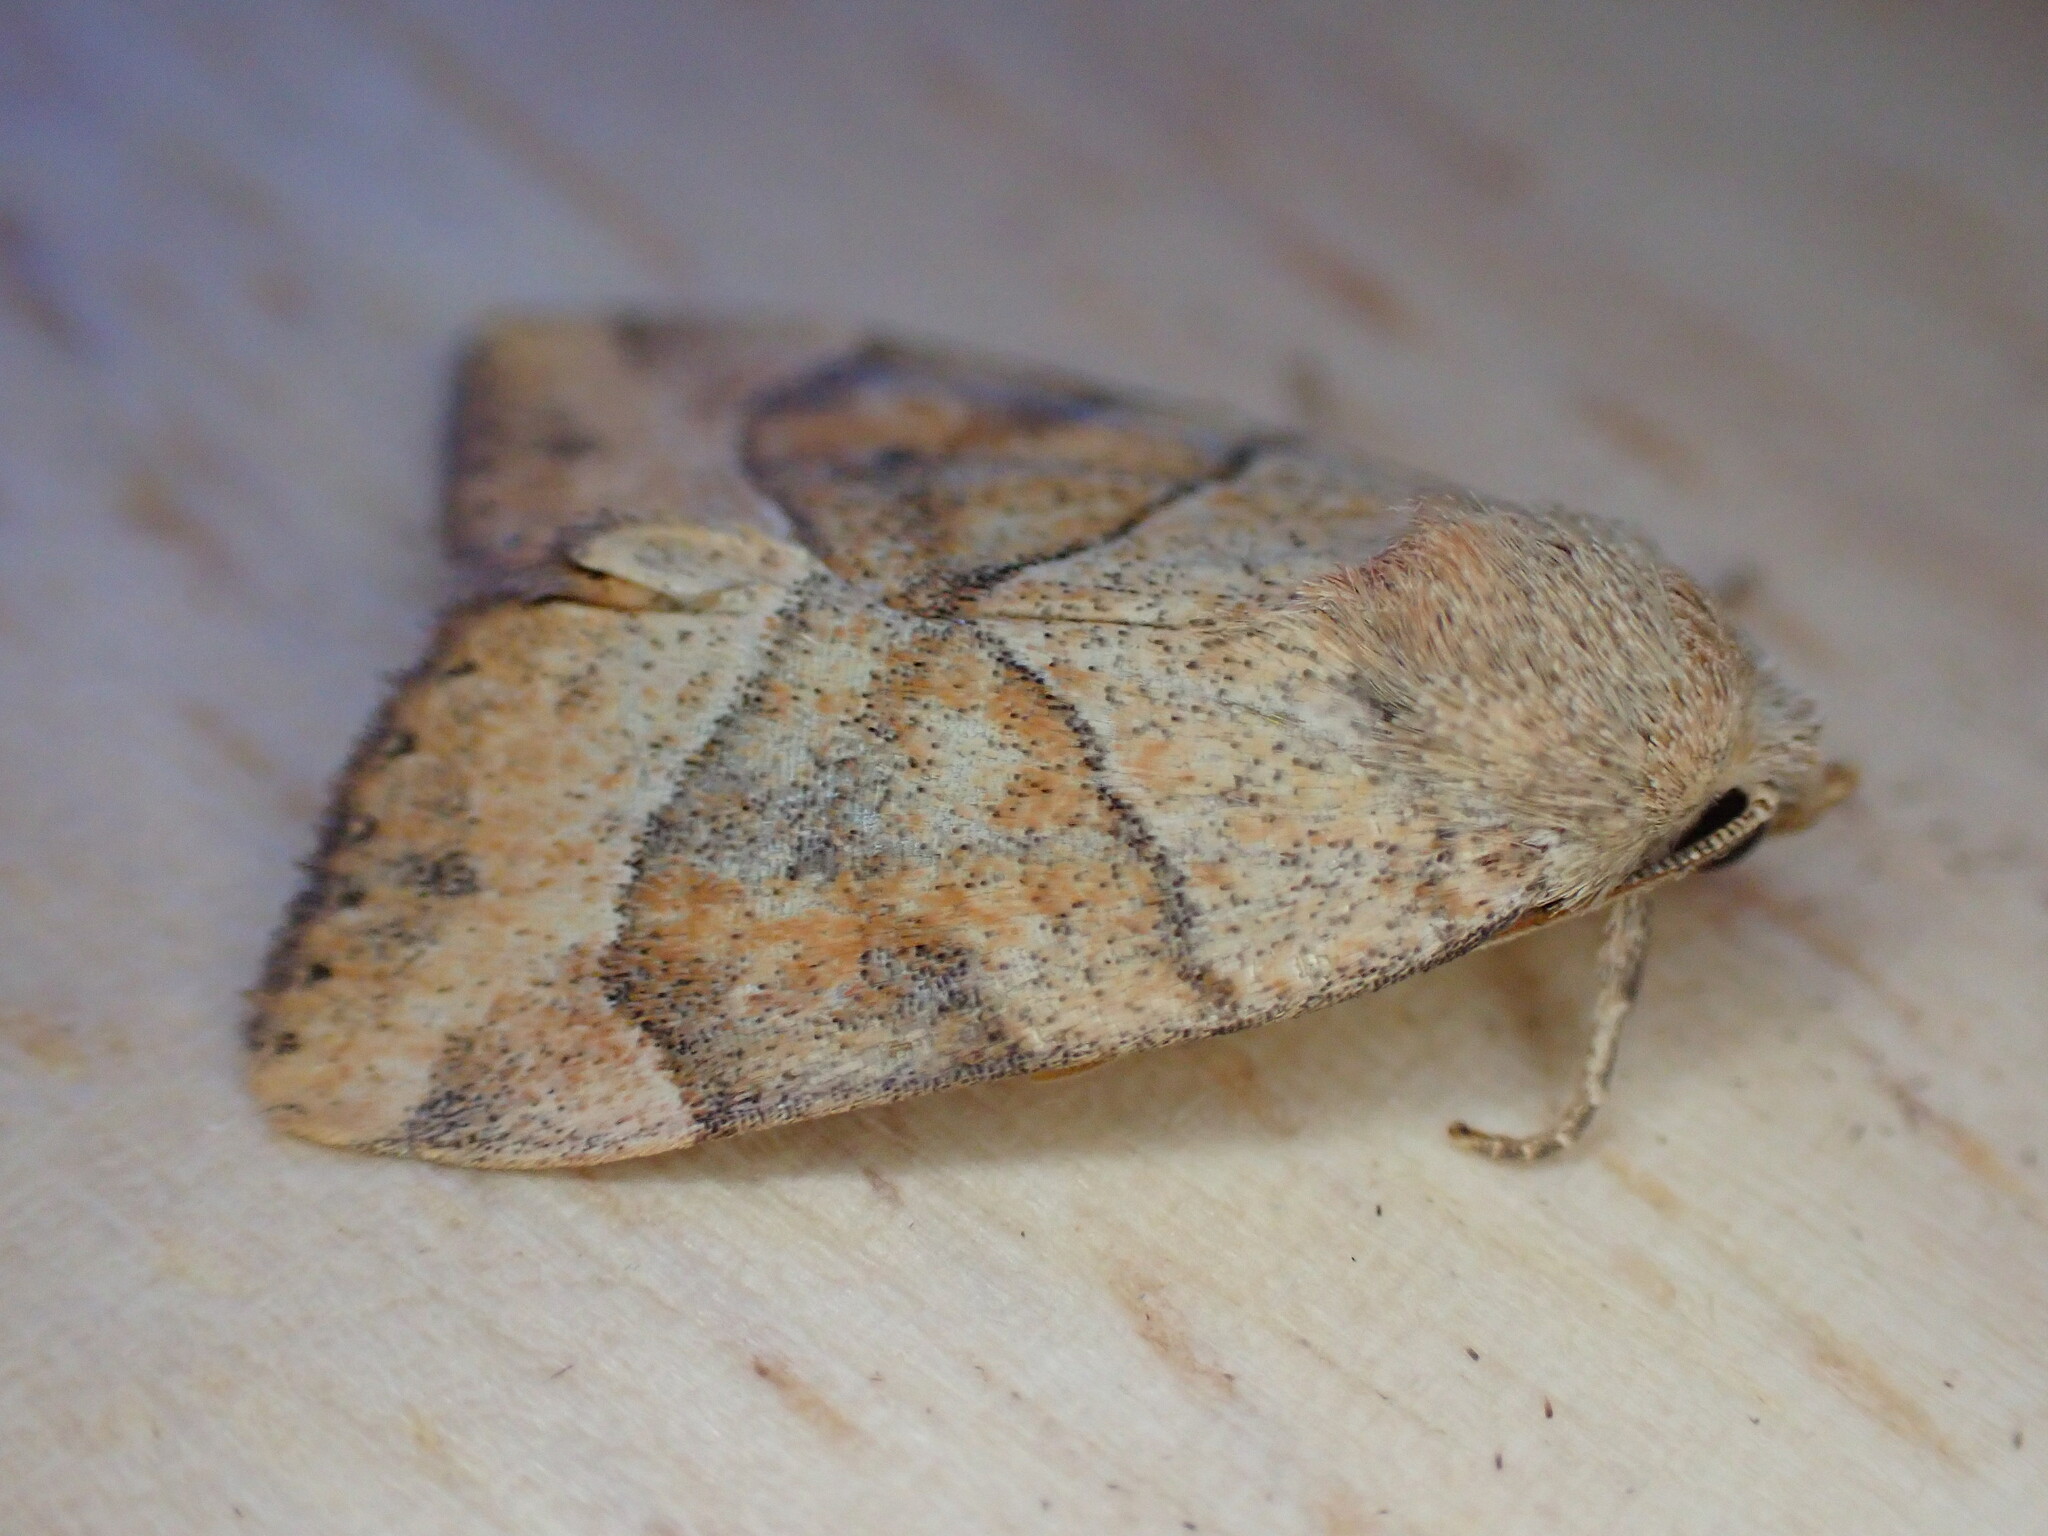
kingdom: Animalia
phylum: Arthropoda
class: Insecta
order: Lepidoptera
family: Noctuidae
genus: Cosmia
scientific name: Cosmia trapezina
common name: Dun-bar
